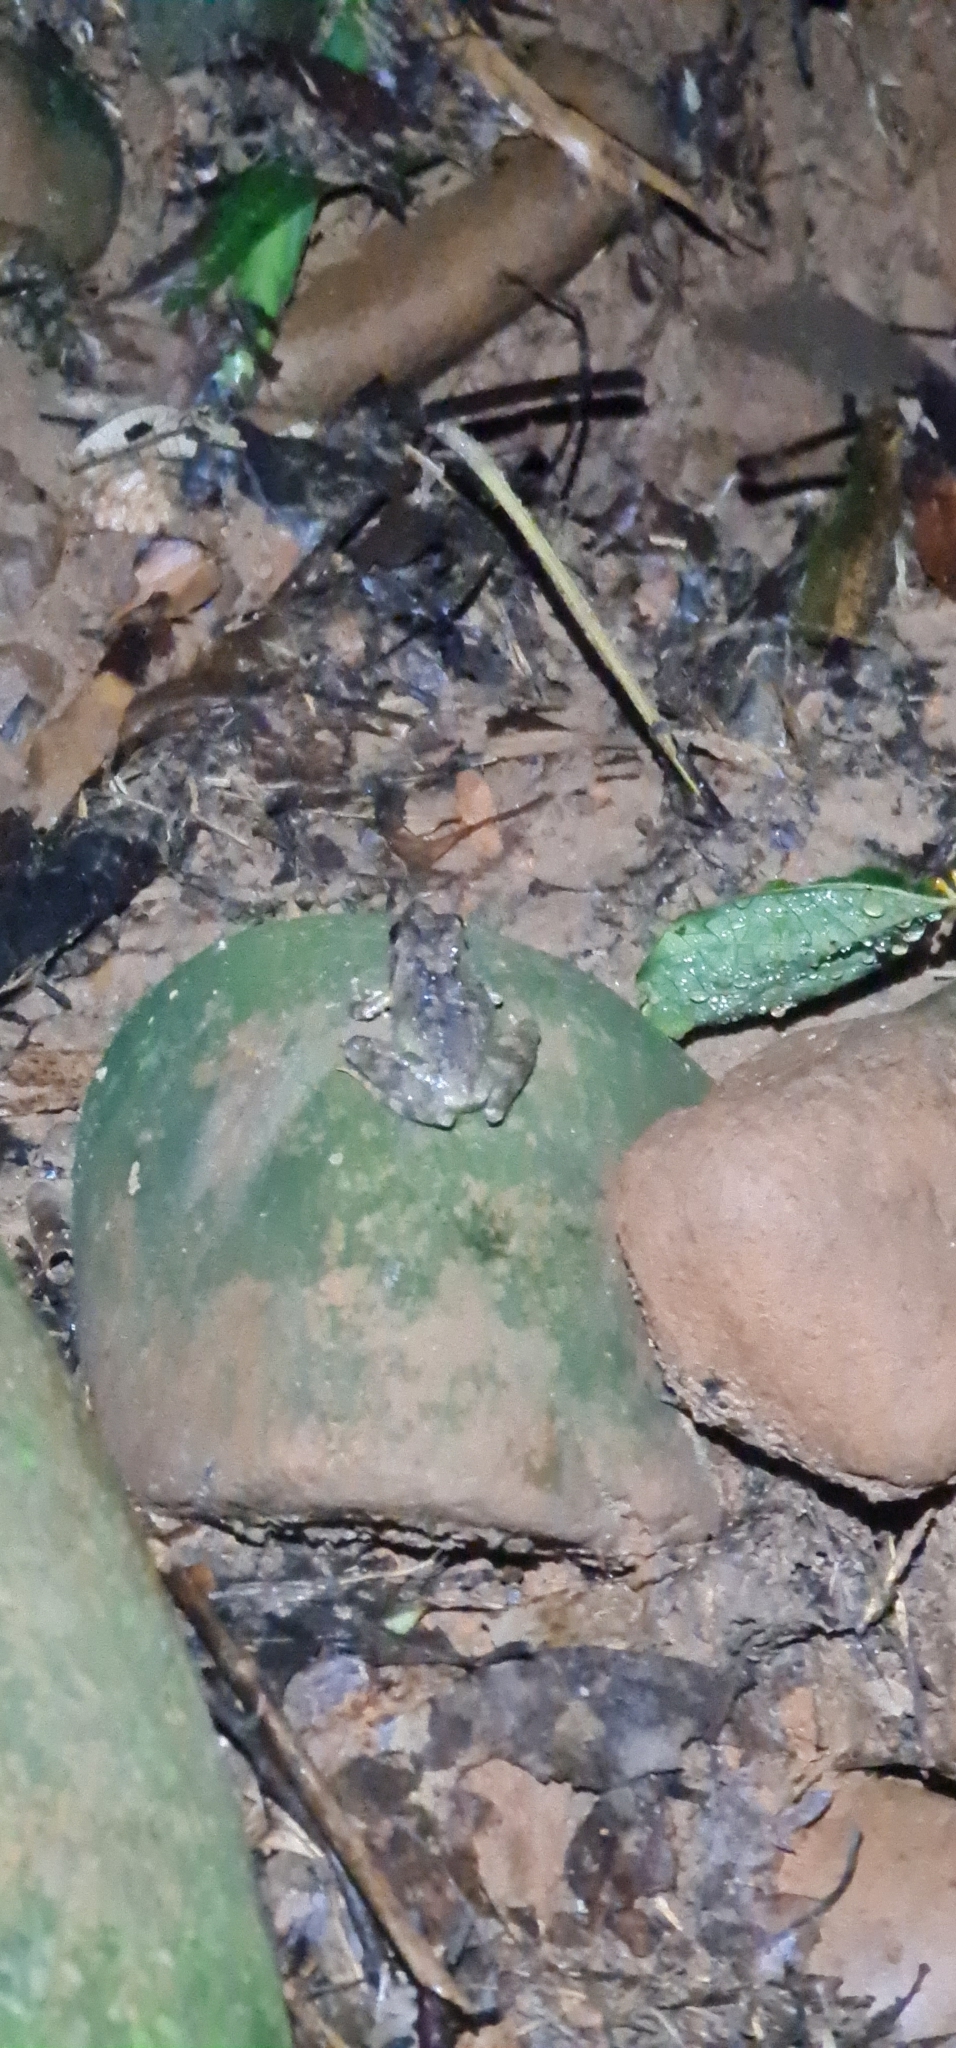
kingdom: Animalia
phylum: Chordata
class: Amphibia
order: Anura
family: Rhacophoridae
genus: Buergeria
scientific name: Buergeria choui
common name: Yaeyama kajika frog
